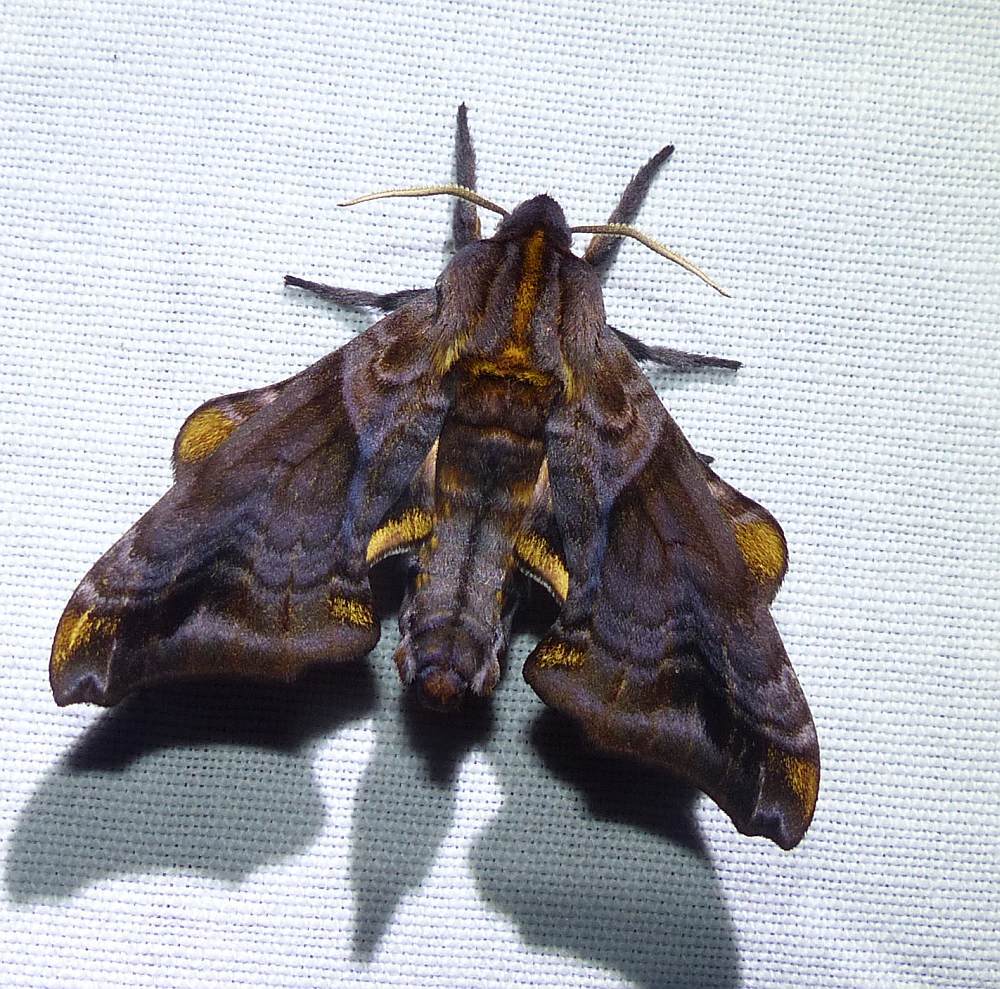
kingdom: Animalia
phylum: Arthropoda
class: Insecta
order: Lepidoptera
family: Sphingidae
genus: Paonias
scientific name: Paonias myops
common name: Small-eyed sphinx
